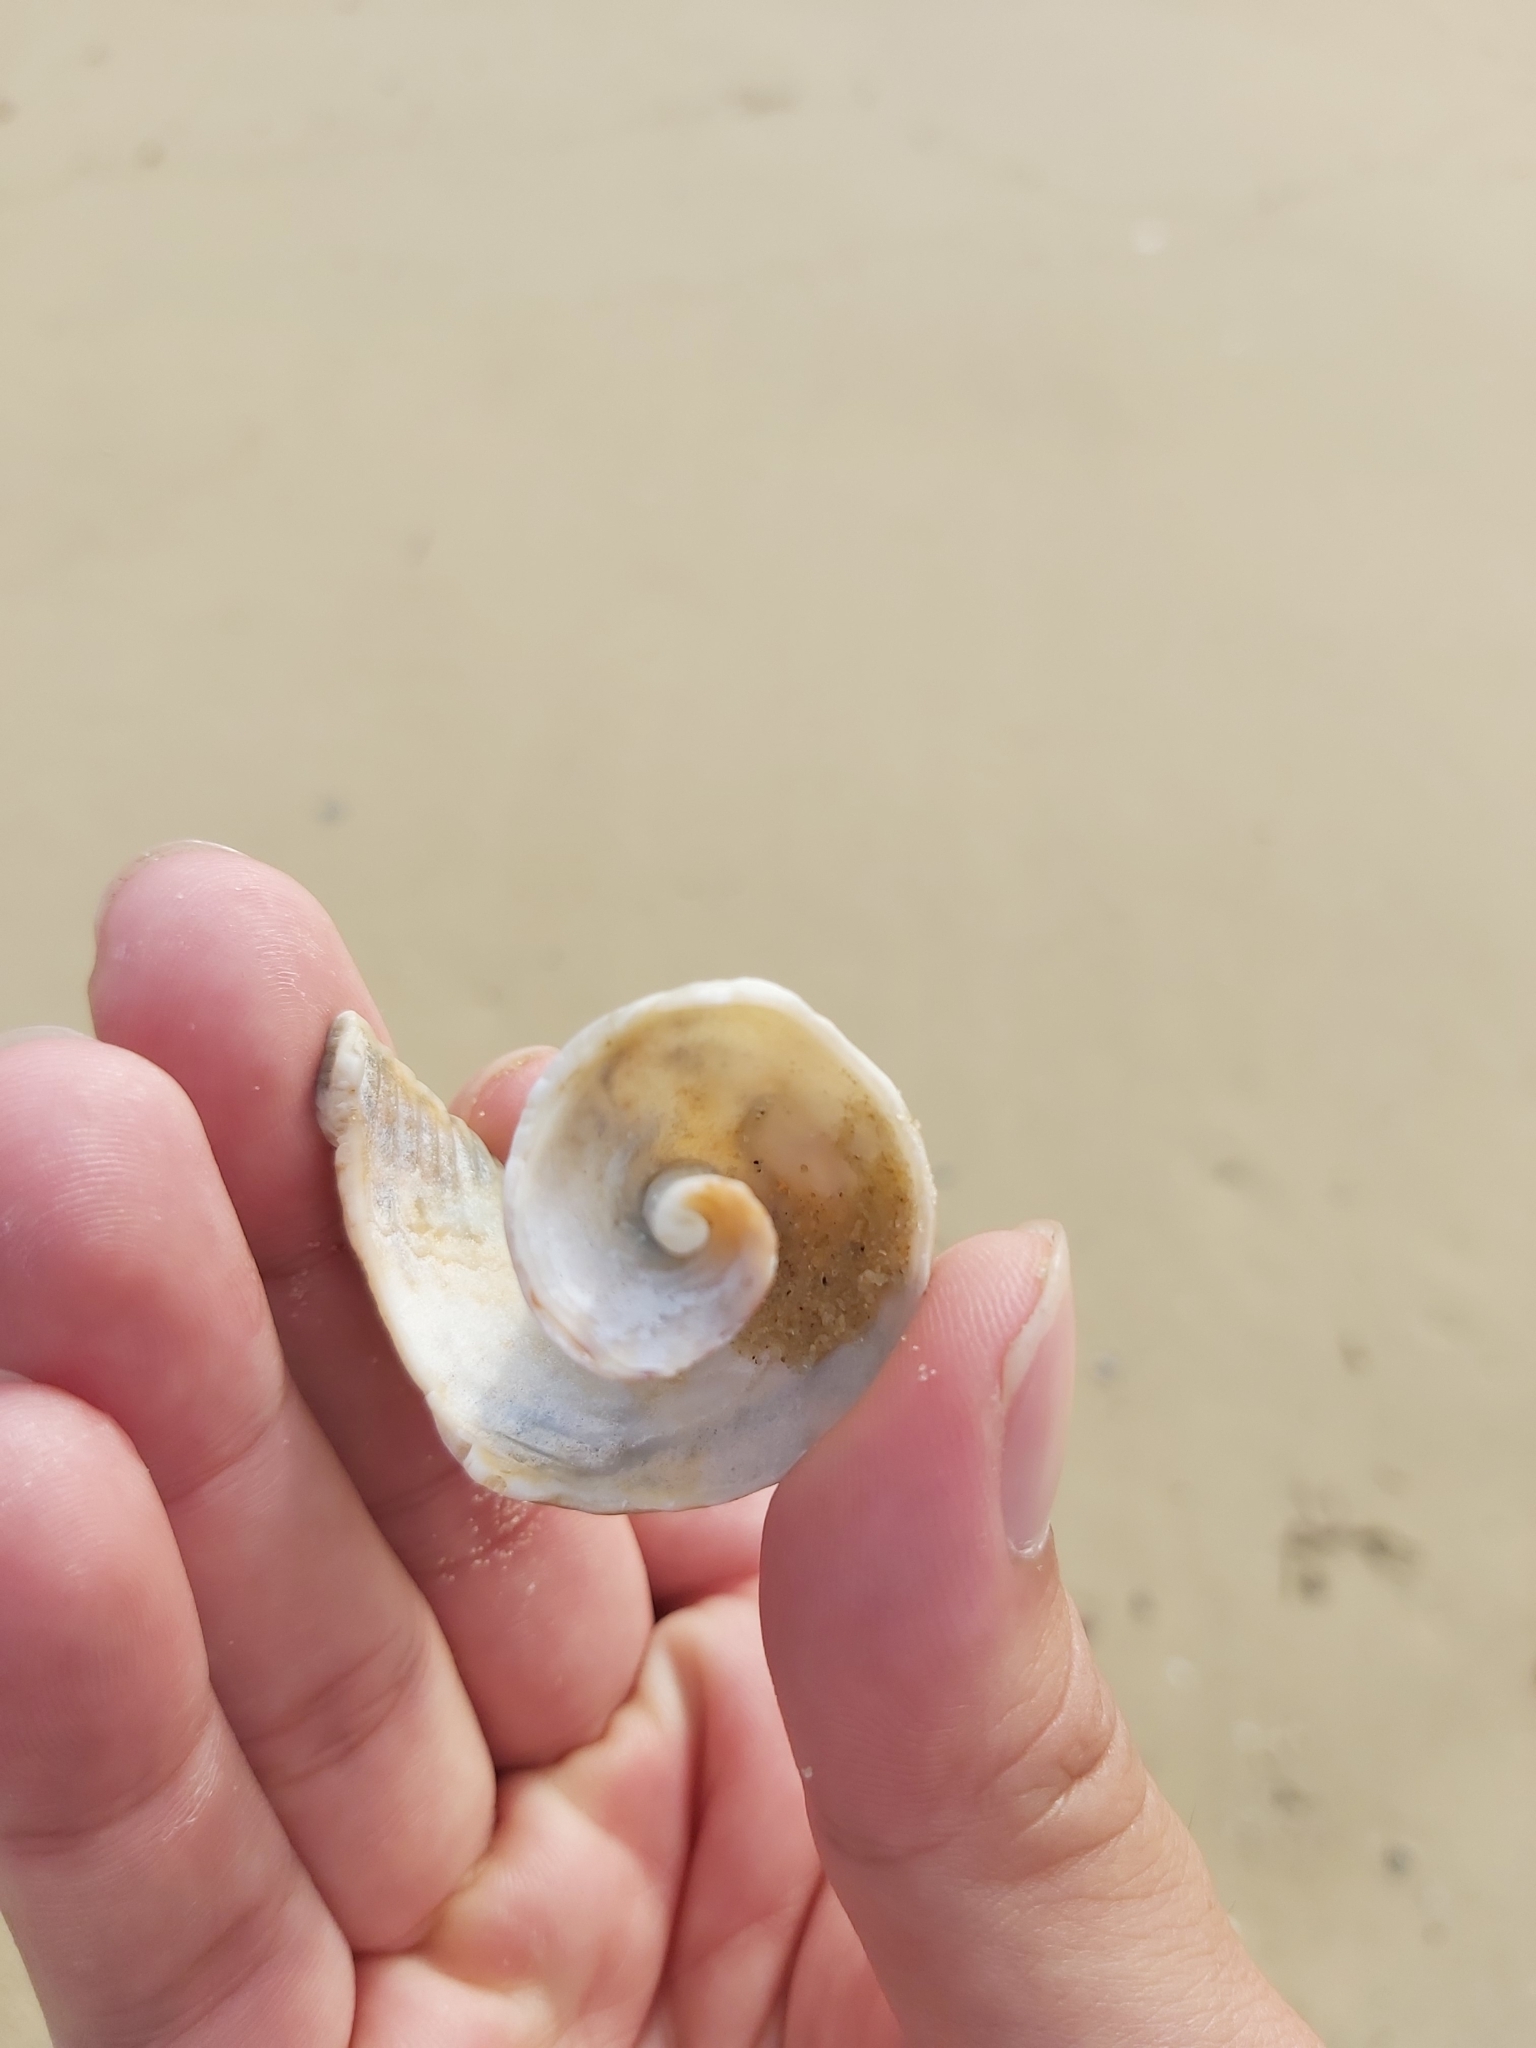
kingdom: Animalia
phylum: Mollusca
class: Gastropoda
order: Neogastropoda
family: Muricidae
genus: Dicathais
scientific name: Dicathais orbita
